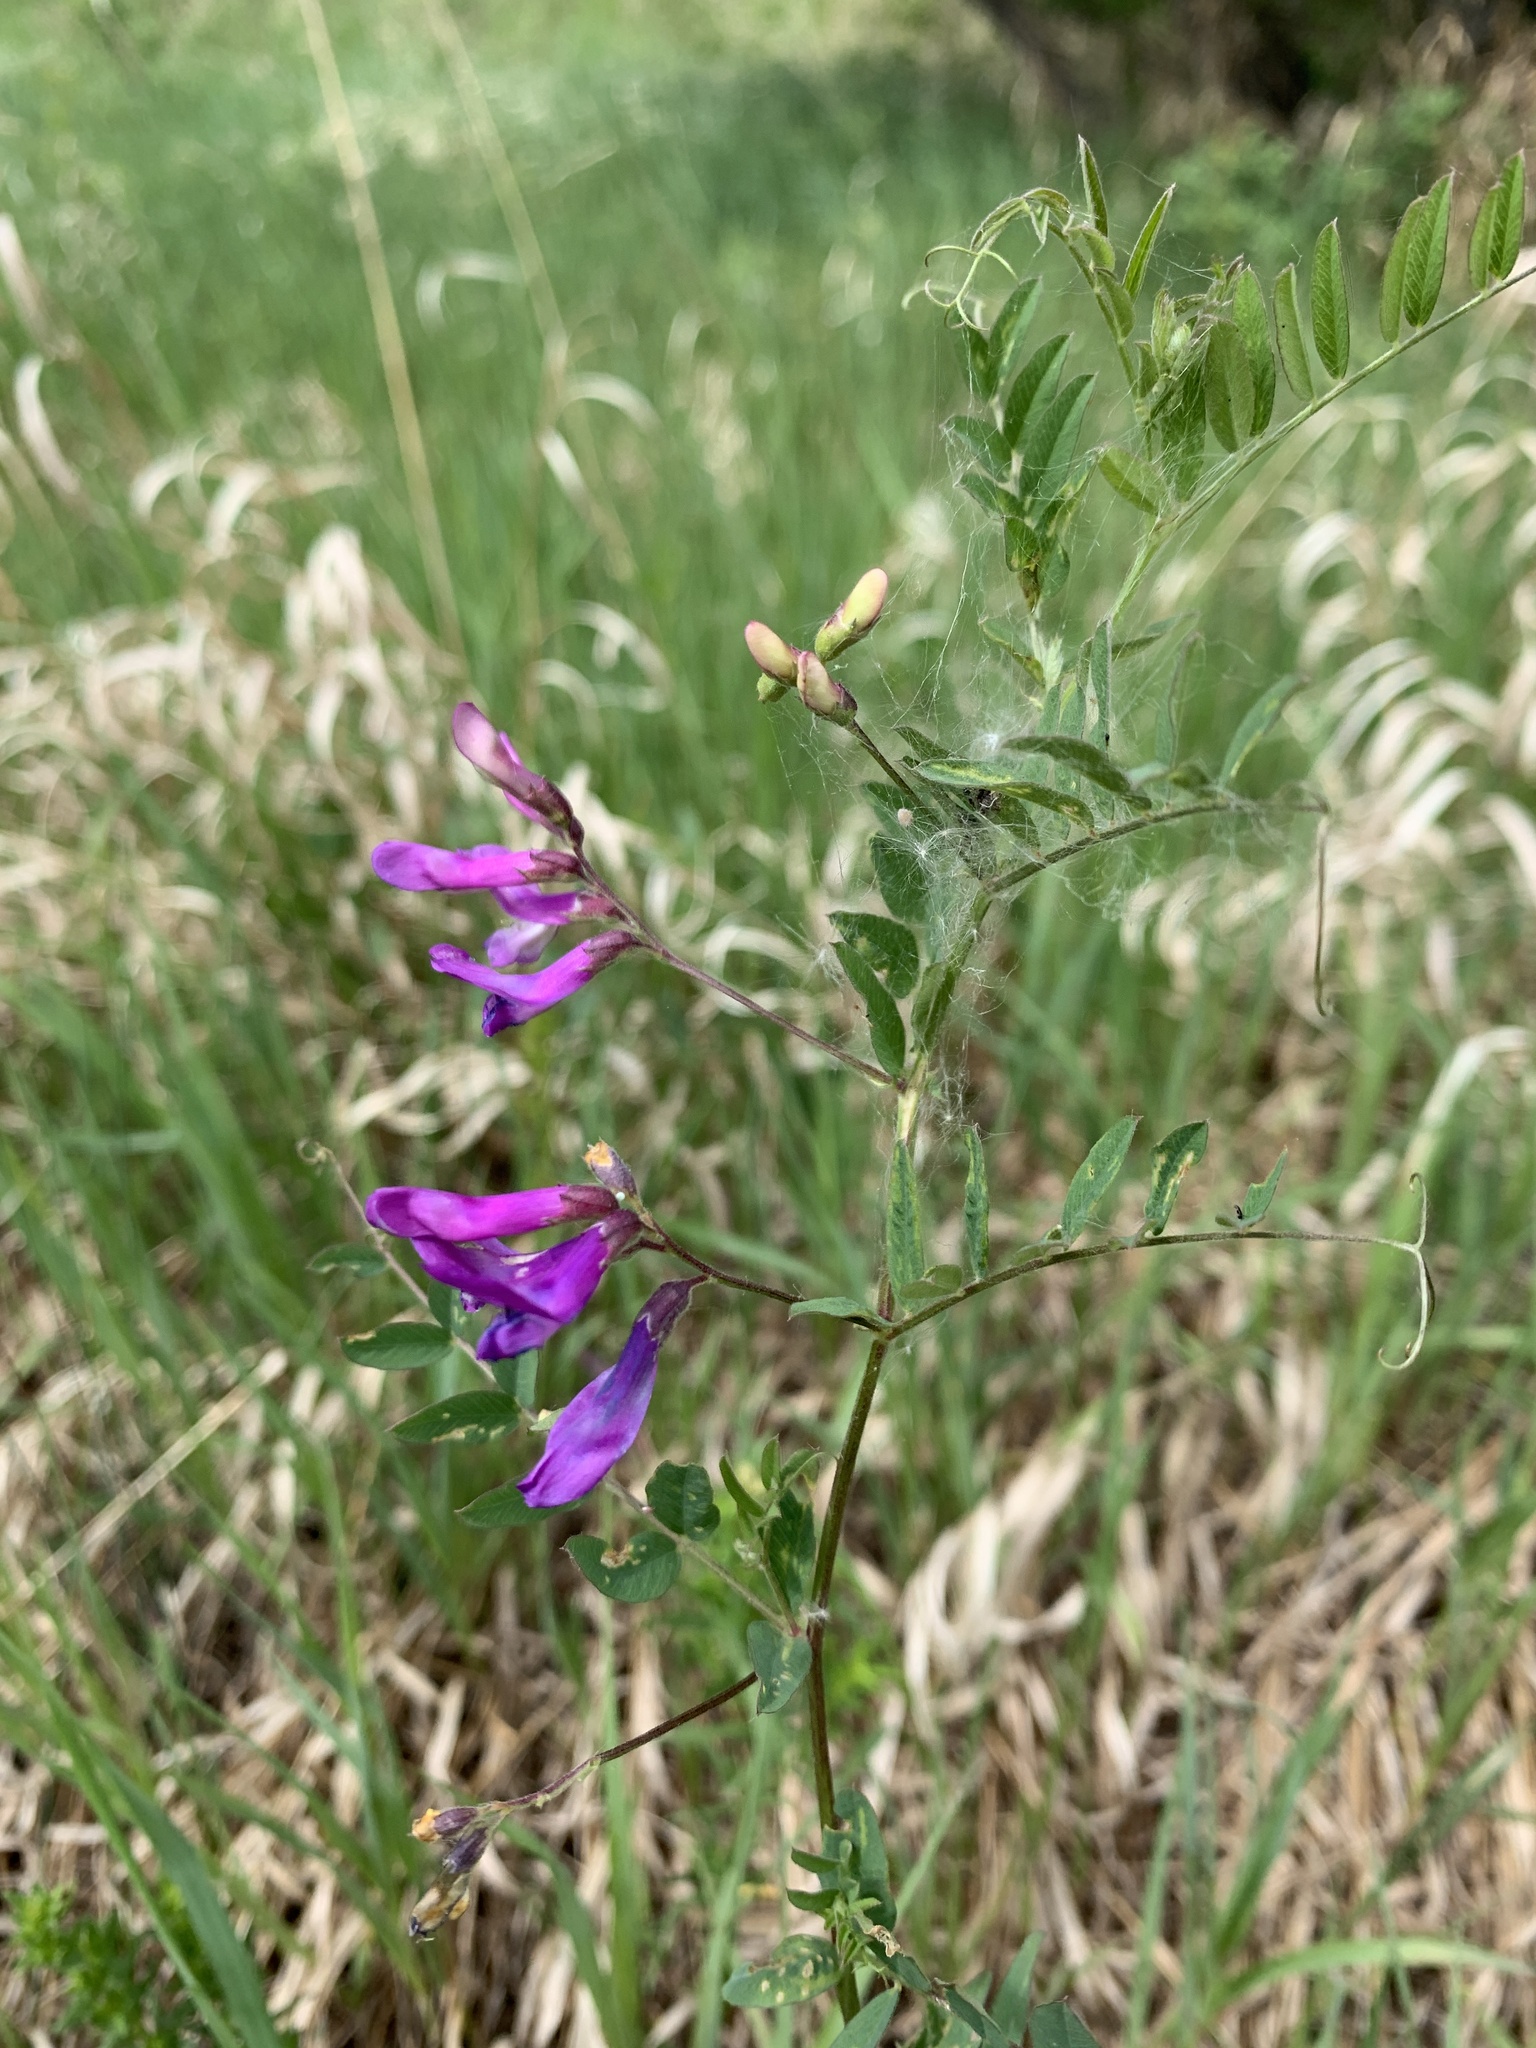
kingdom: Plantae
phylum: Tracheophyta
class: Magnoliopsida
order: Fabales
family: Fabaceae
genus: Vicia
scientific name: Vicia americana
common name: American vetch
